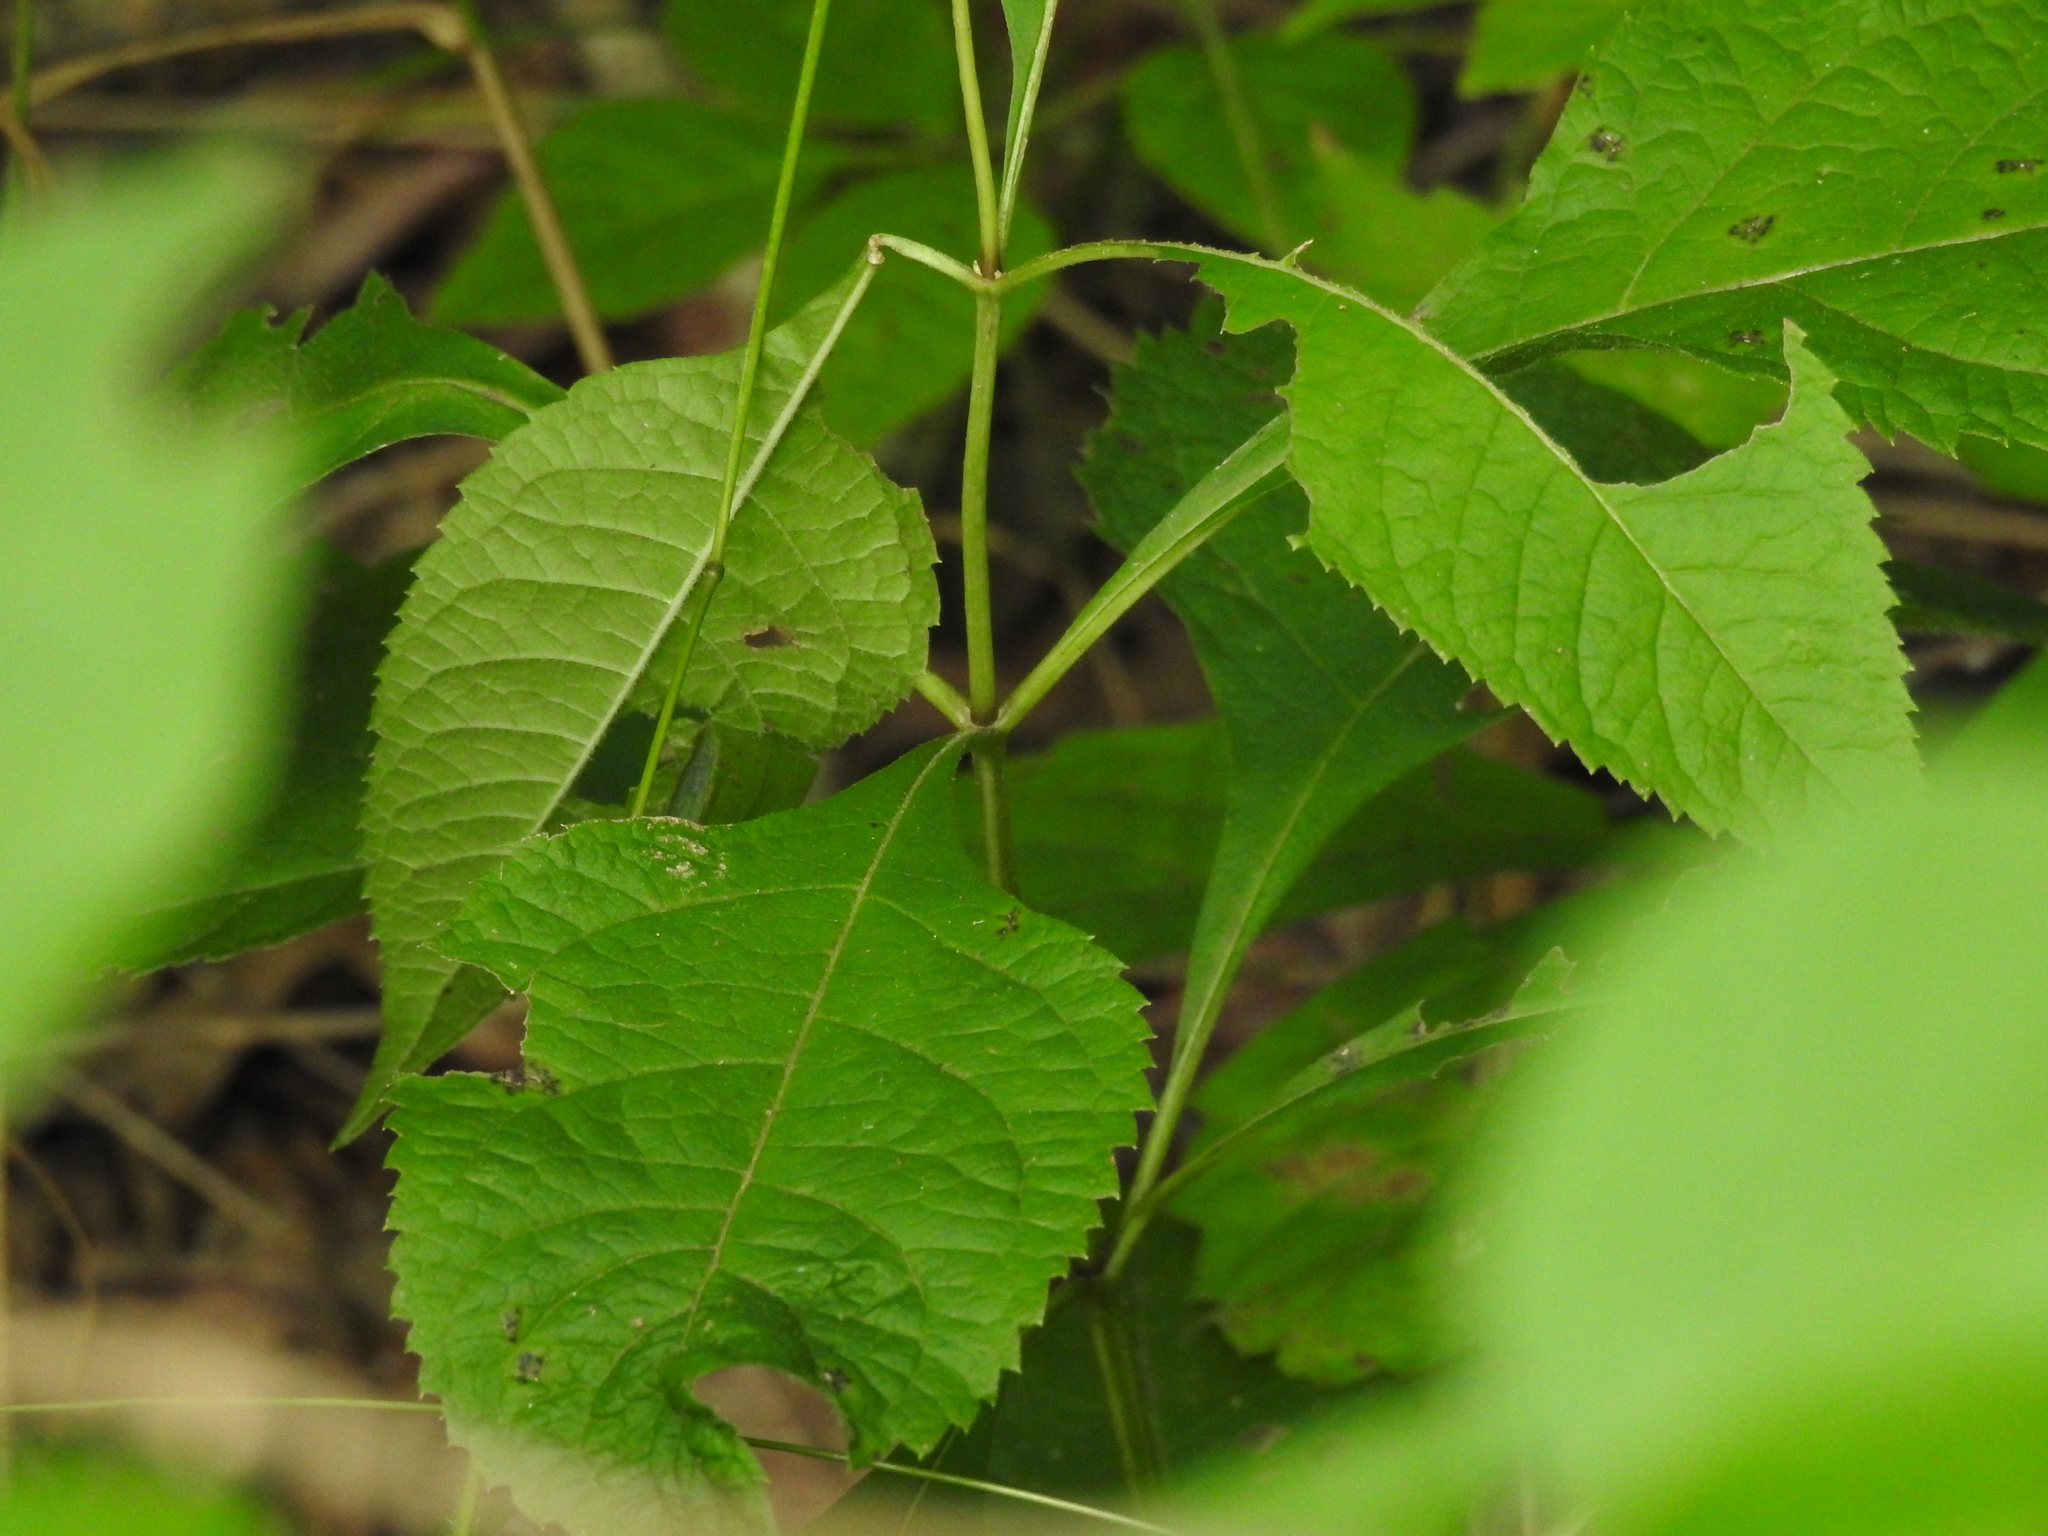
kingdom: Plantae
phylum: Tracheophyta
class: Magnoliopsida
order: Asterales
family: Asteraceae
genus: Eutrochium
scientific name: Eutrochium purpureum
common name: Gravelroot
